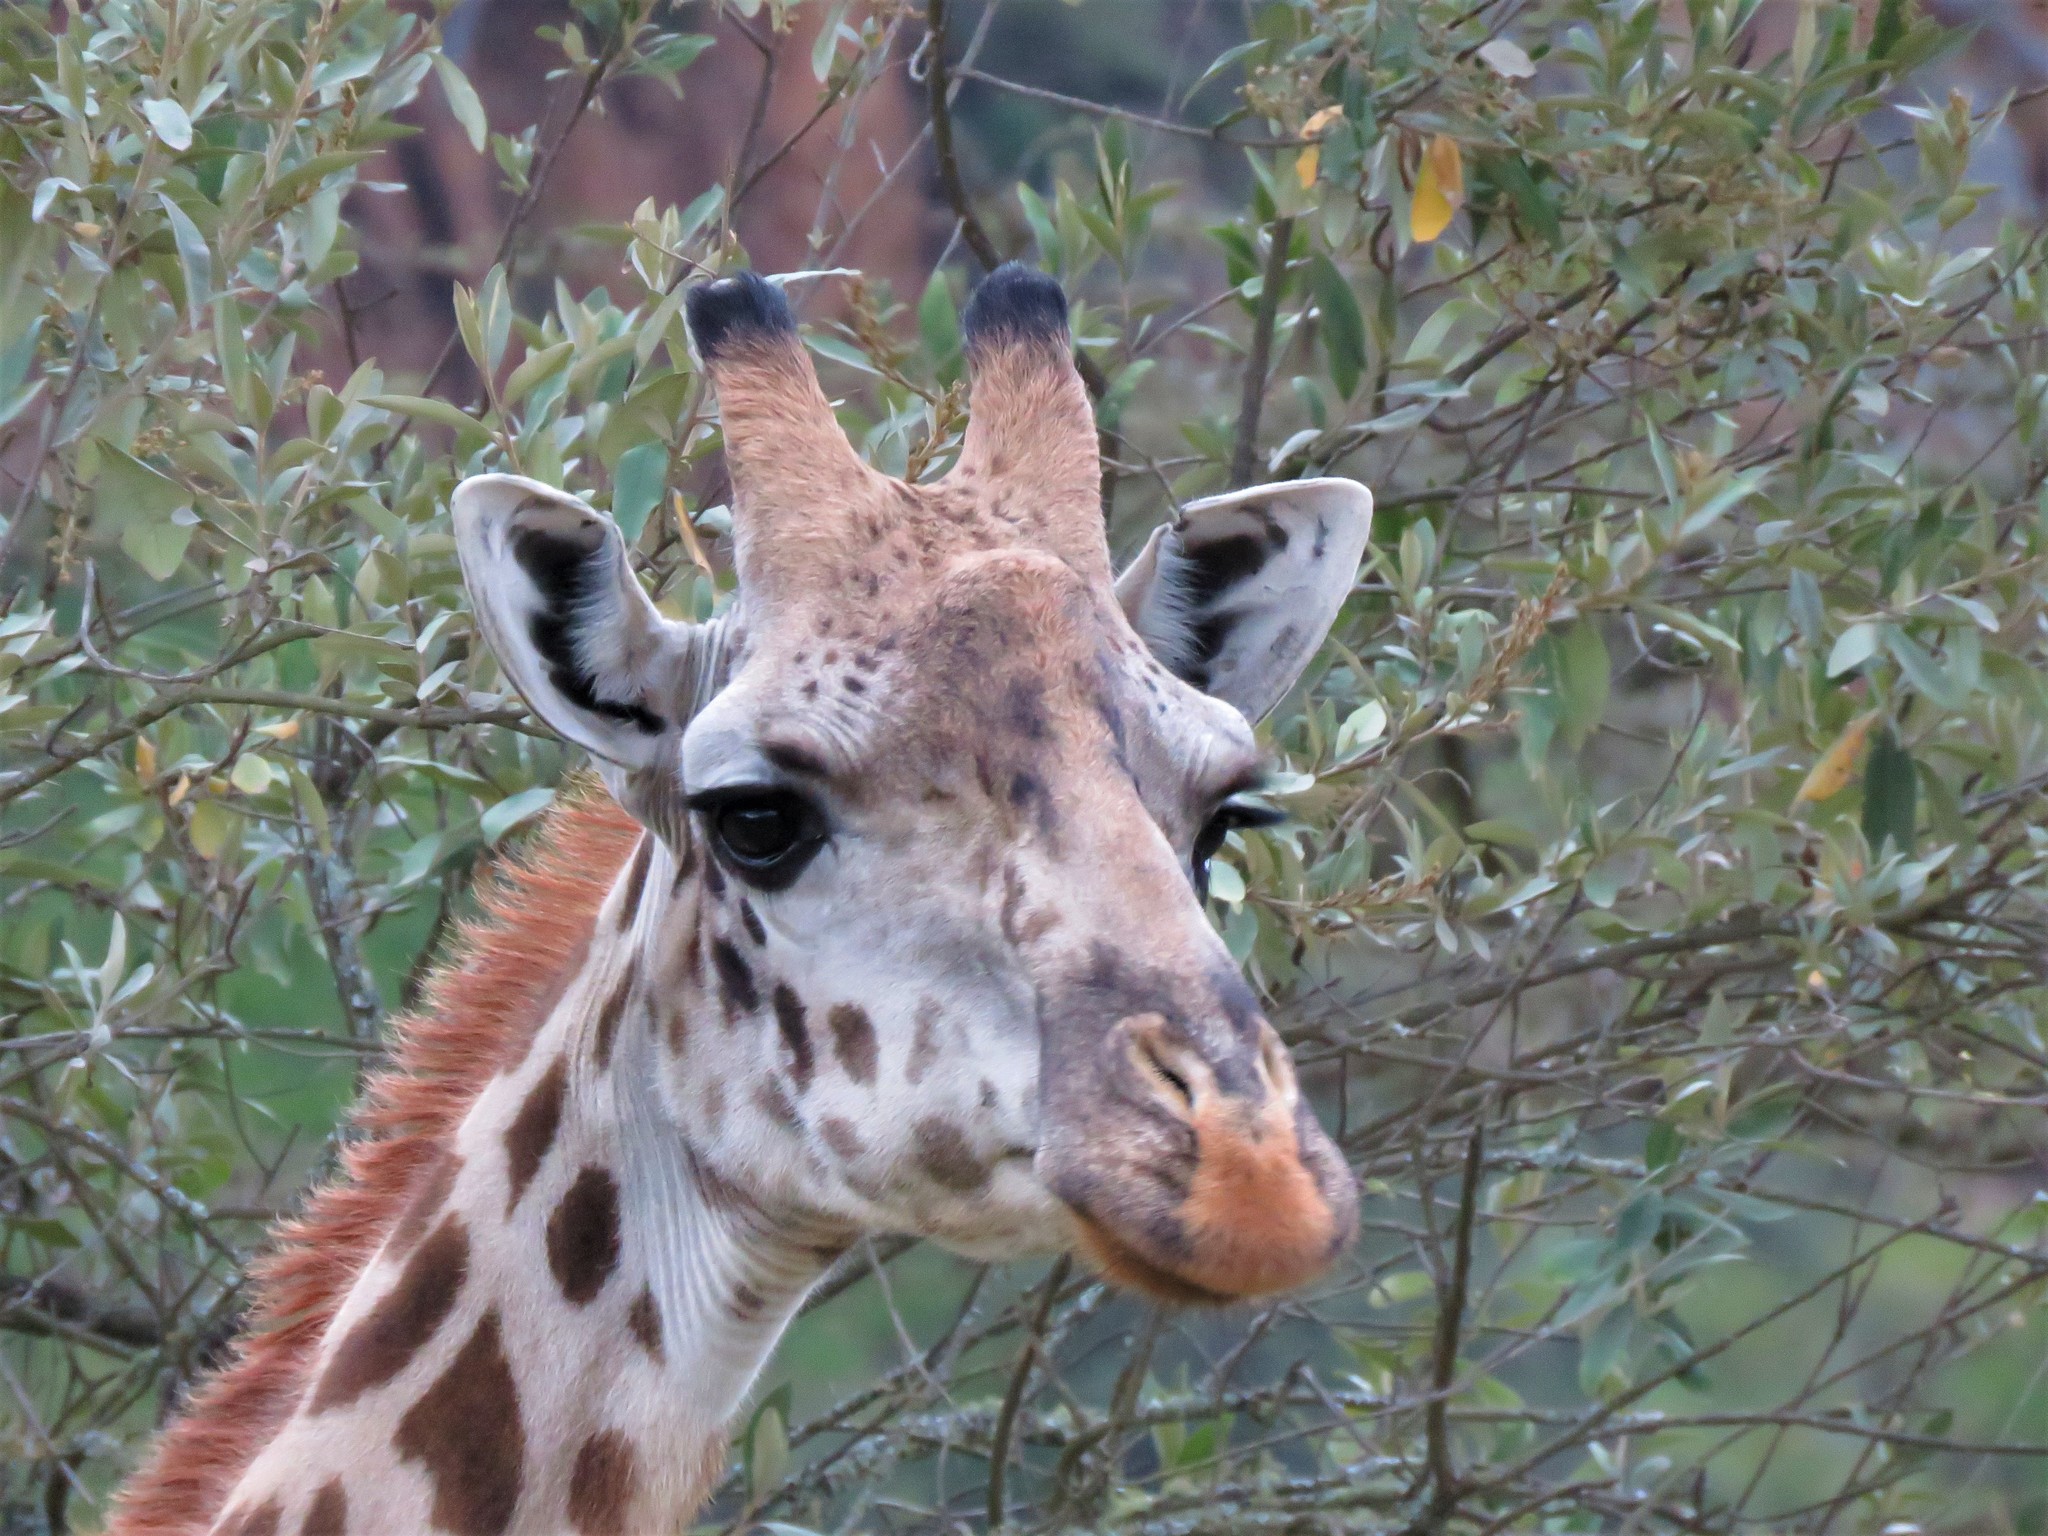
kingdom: Animalia
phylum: Chordata
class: Mammalia
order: Artiodactyla
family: Giraffidae
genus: Giraffa
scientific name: Giraffa tippelskirchi
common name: Masai giraffe
